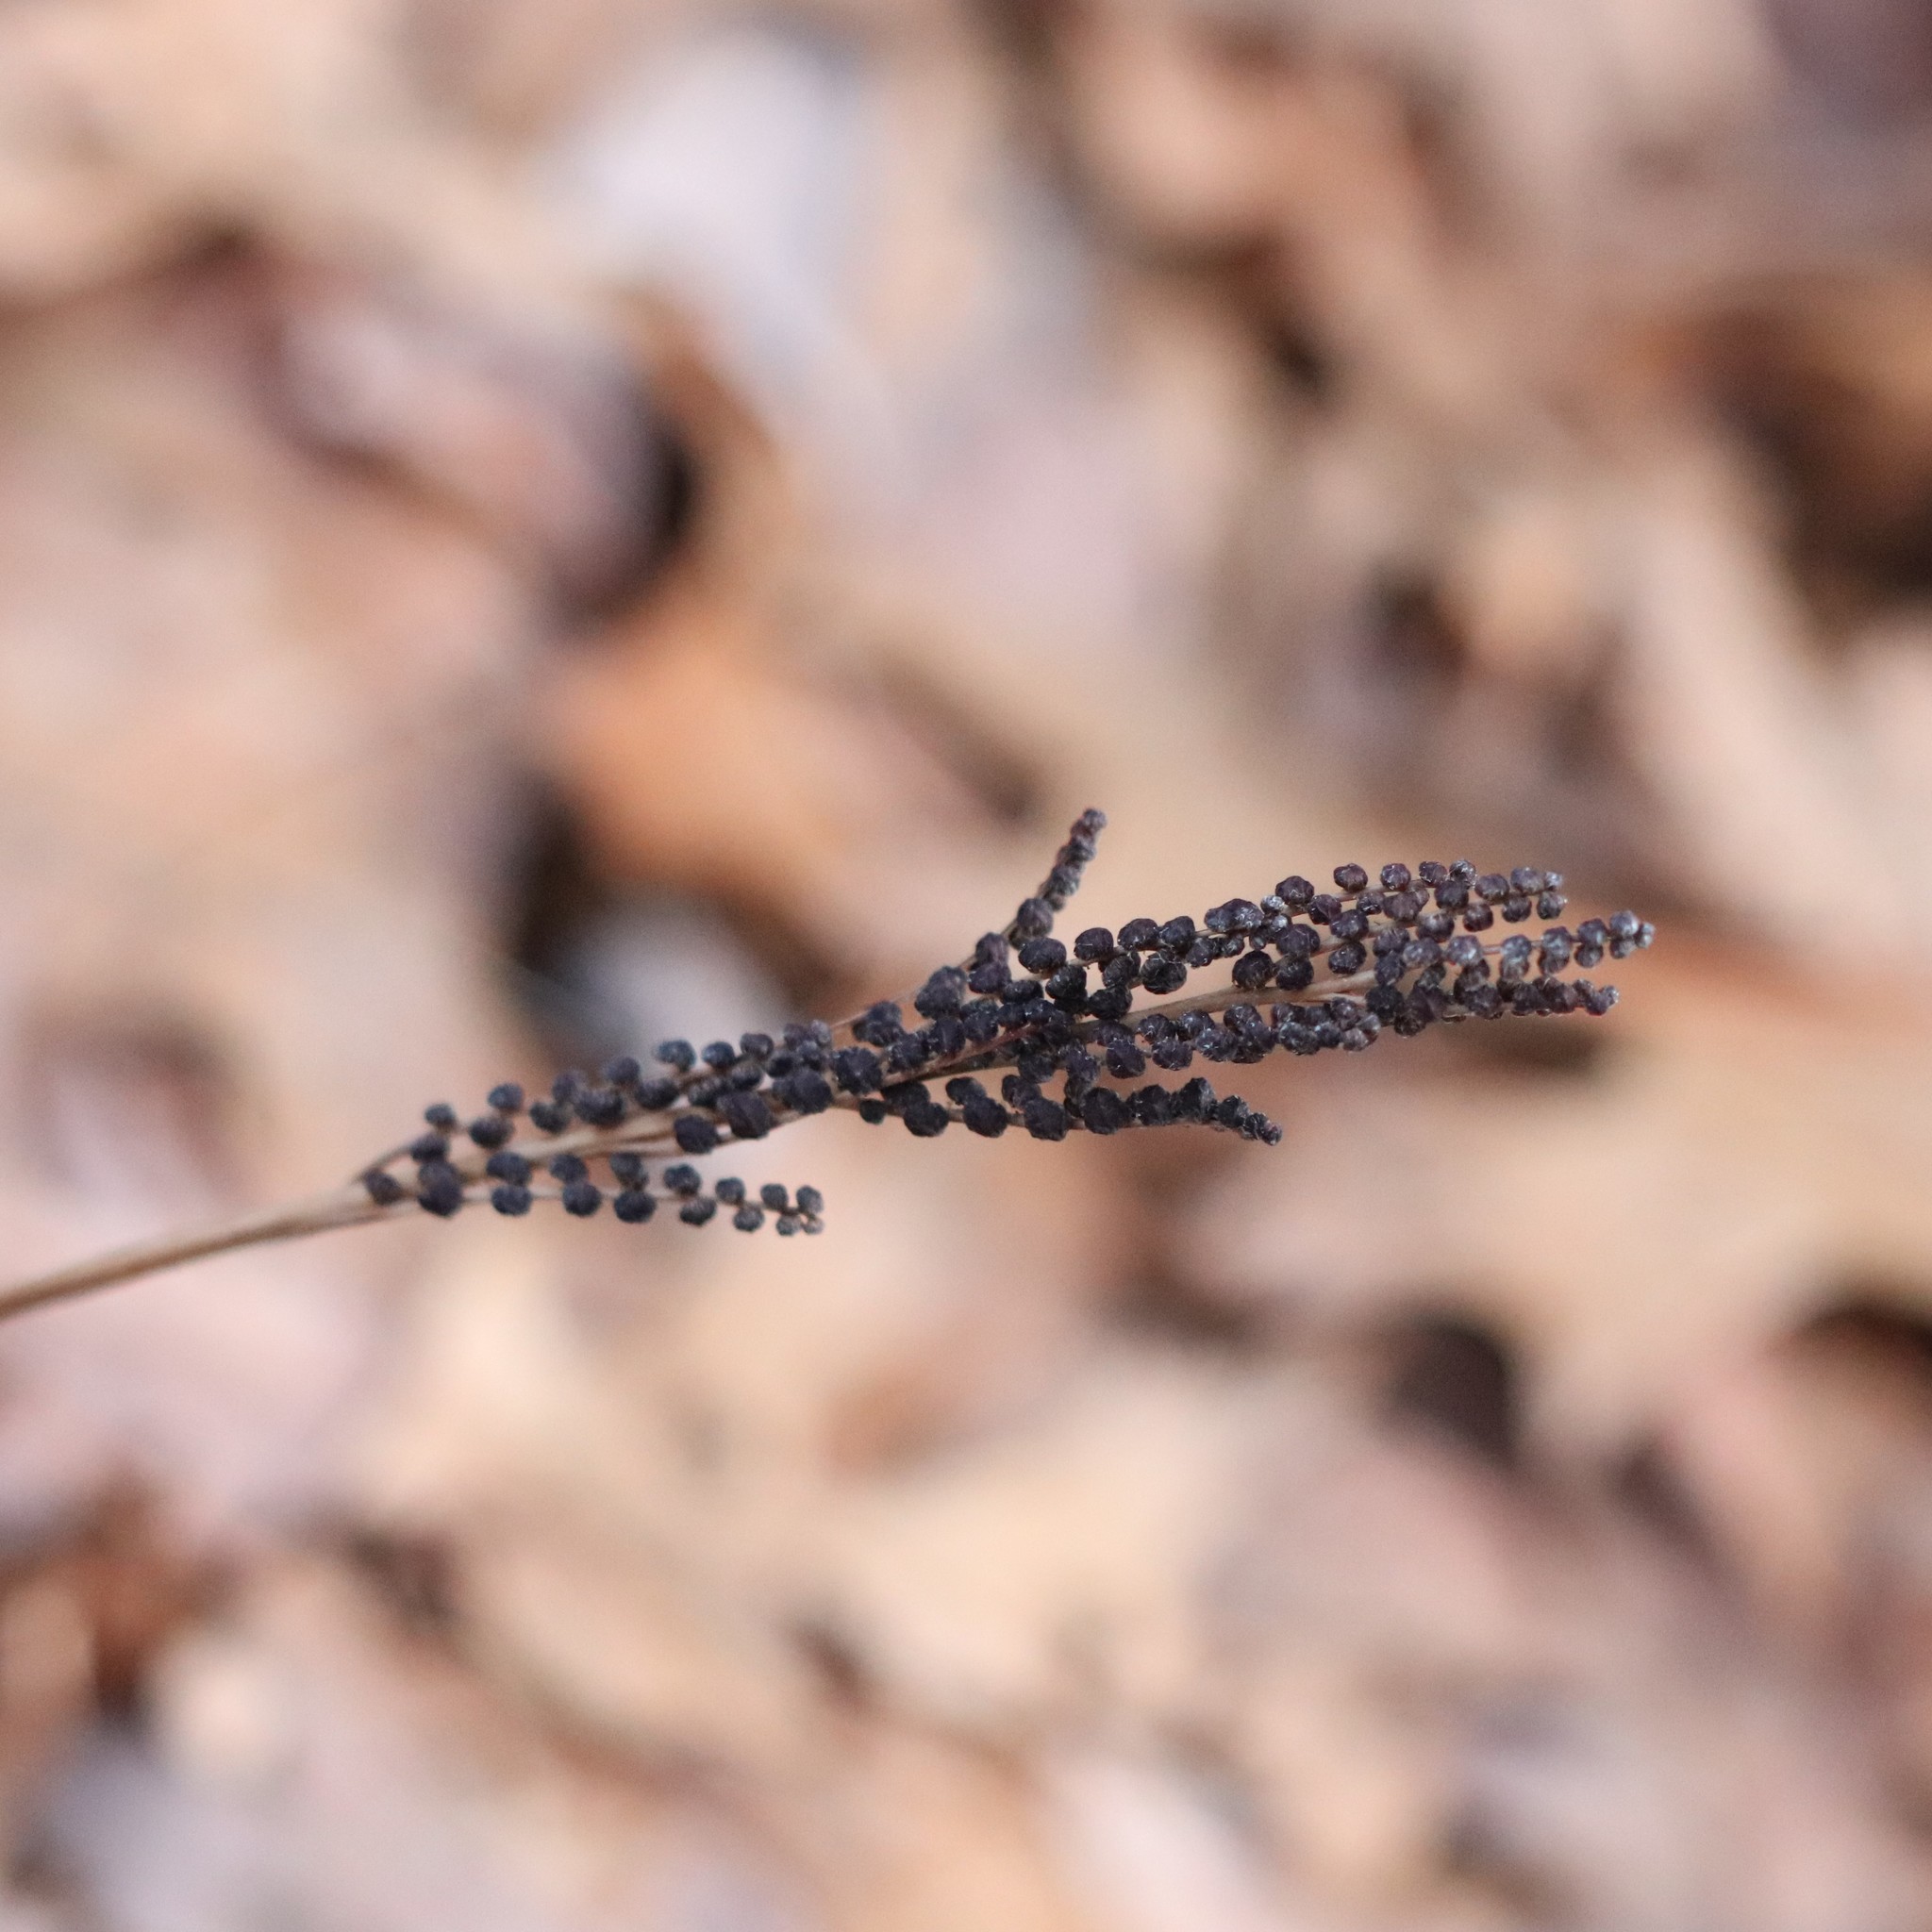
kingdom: Plantae
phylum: Tracheophyta
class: Polypodiopsida
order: Polypodiales
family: Onocleaceae
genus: Onoclea
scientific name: Onoclea sensibilis
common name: Sensitive fern
